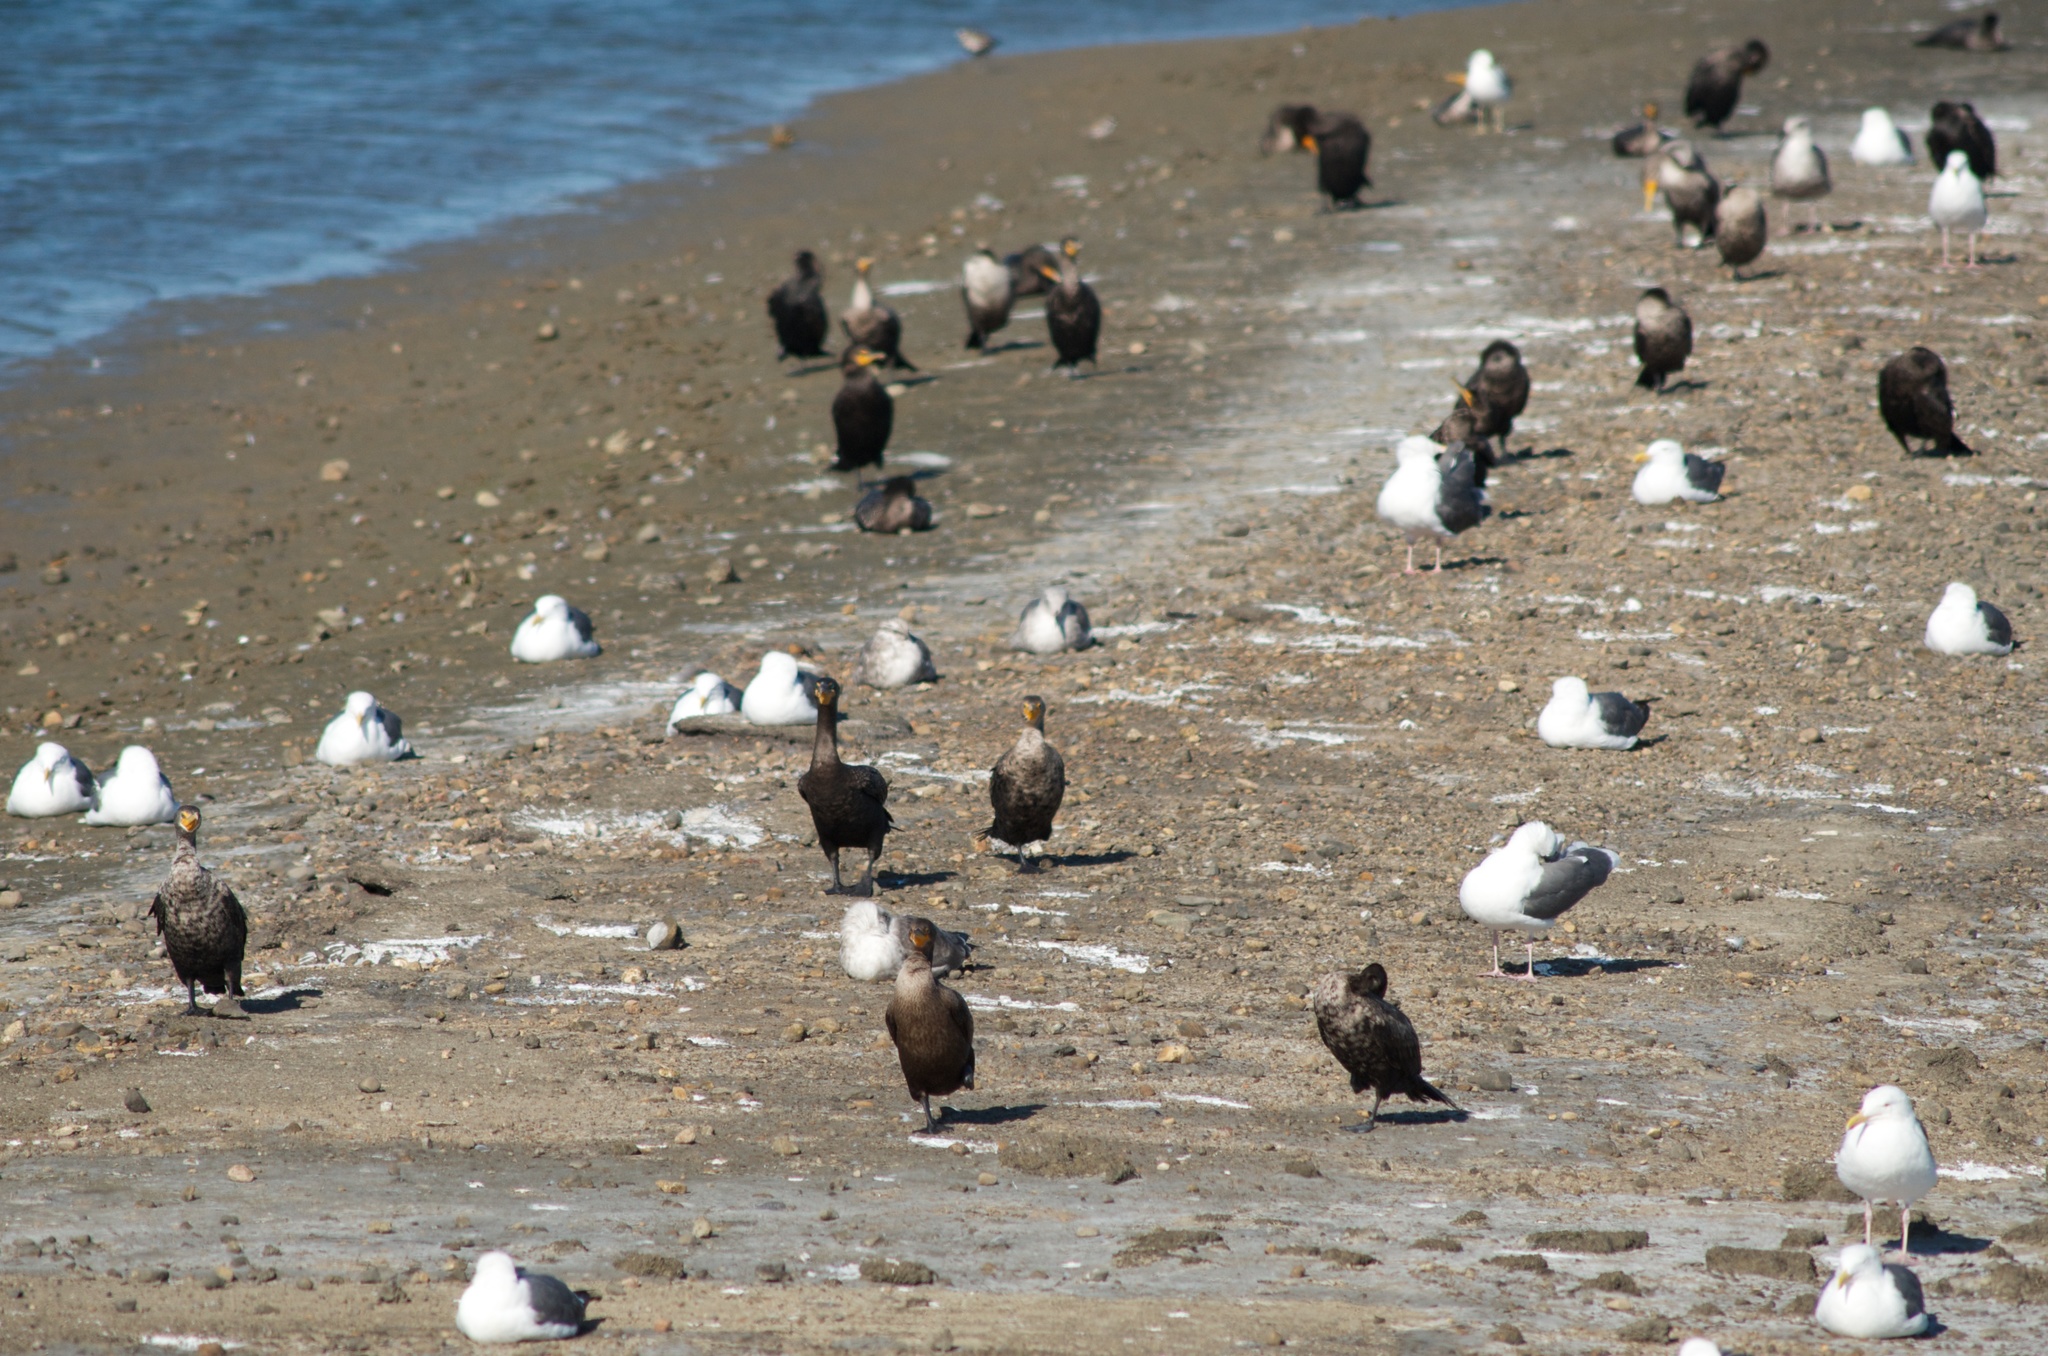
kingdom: Animalia
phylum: Chordata
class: Aves
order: Suliformes
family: Phalacrocoracidae
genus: Phalacrocorax
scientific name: Phalacrocorax auritus
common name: Double-crested cormorant
